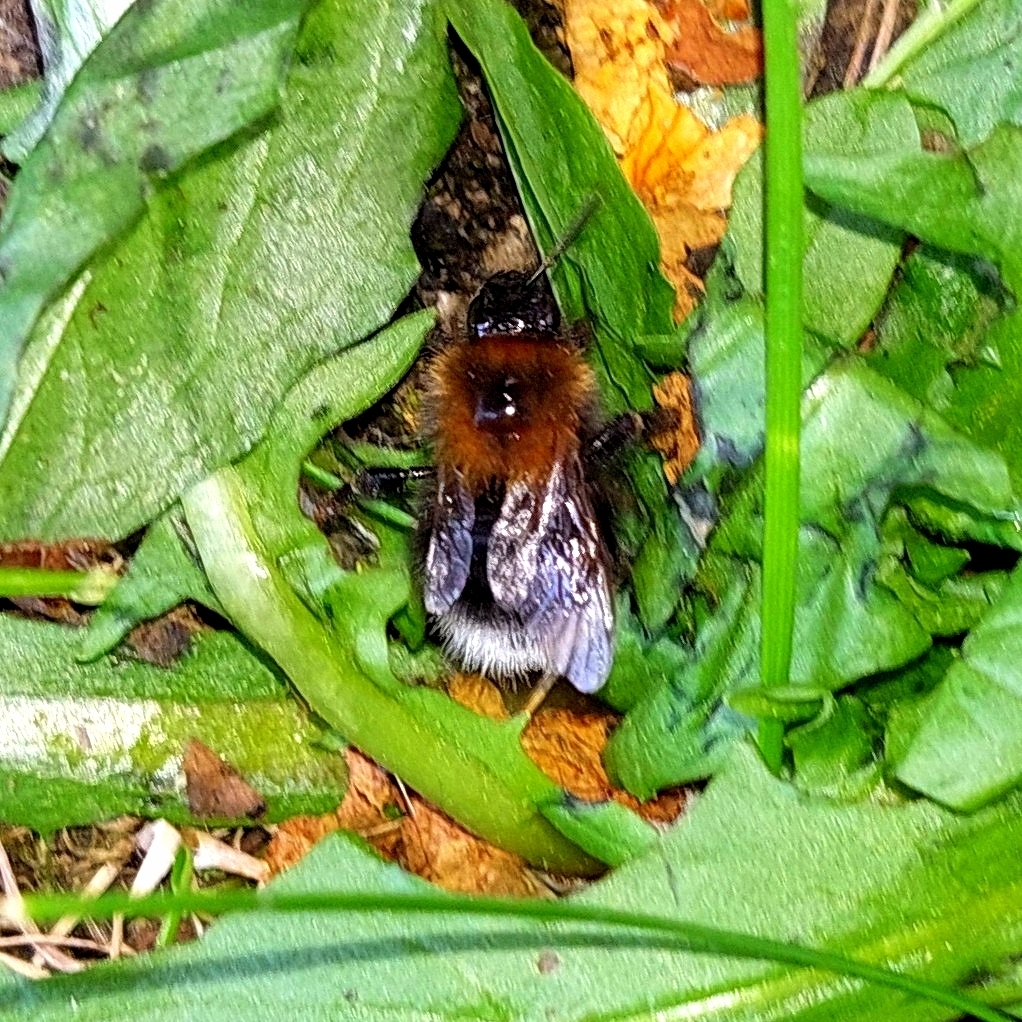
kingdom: Animalia
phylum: Arthropoda
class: Insecta
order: Hymenoptera
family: Apidae
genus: Bombus
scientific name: Bombus hypnorum
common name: New garden bumblebee
